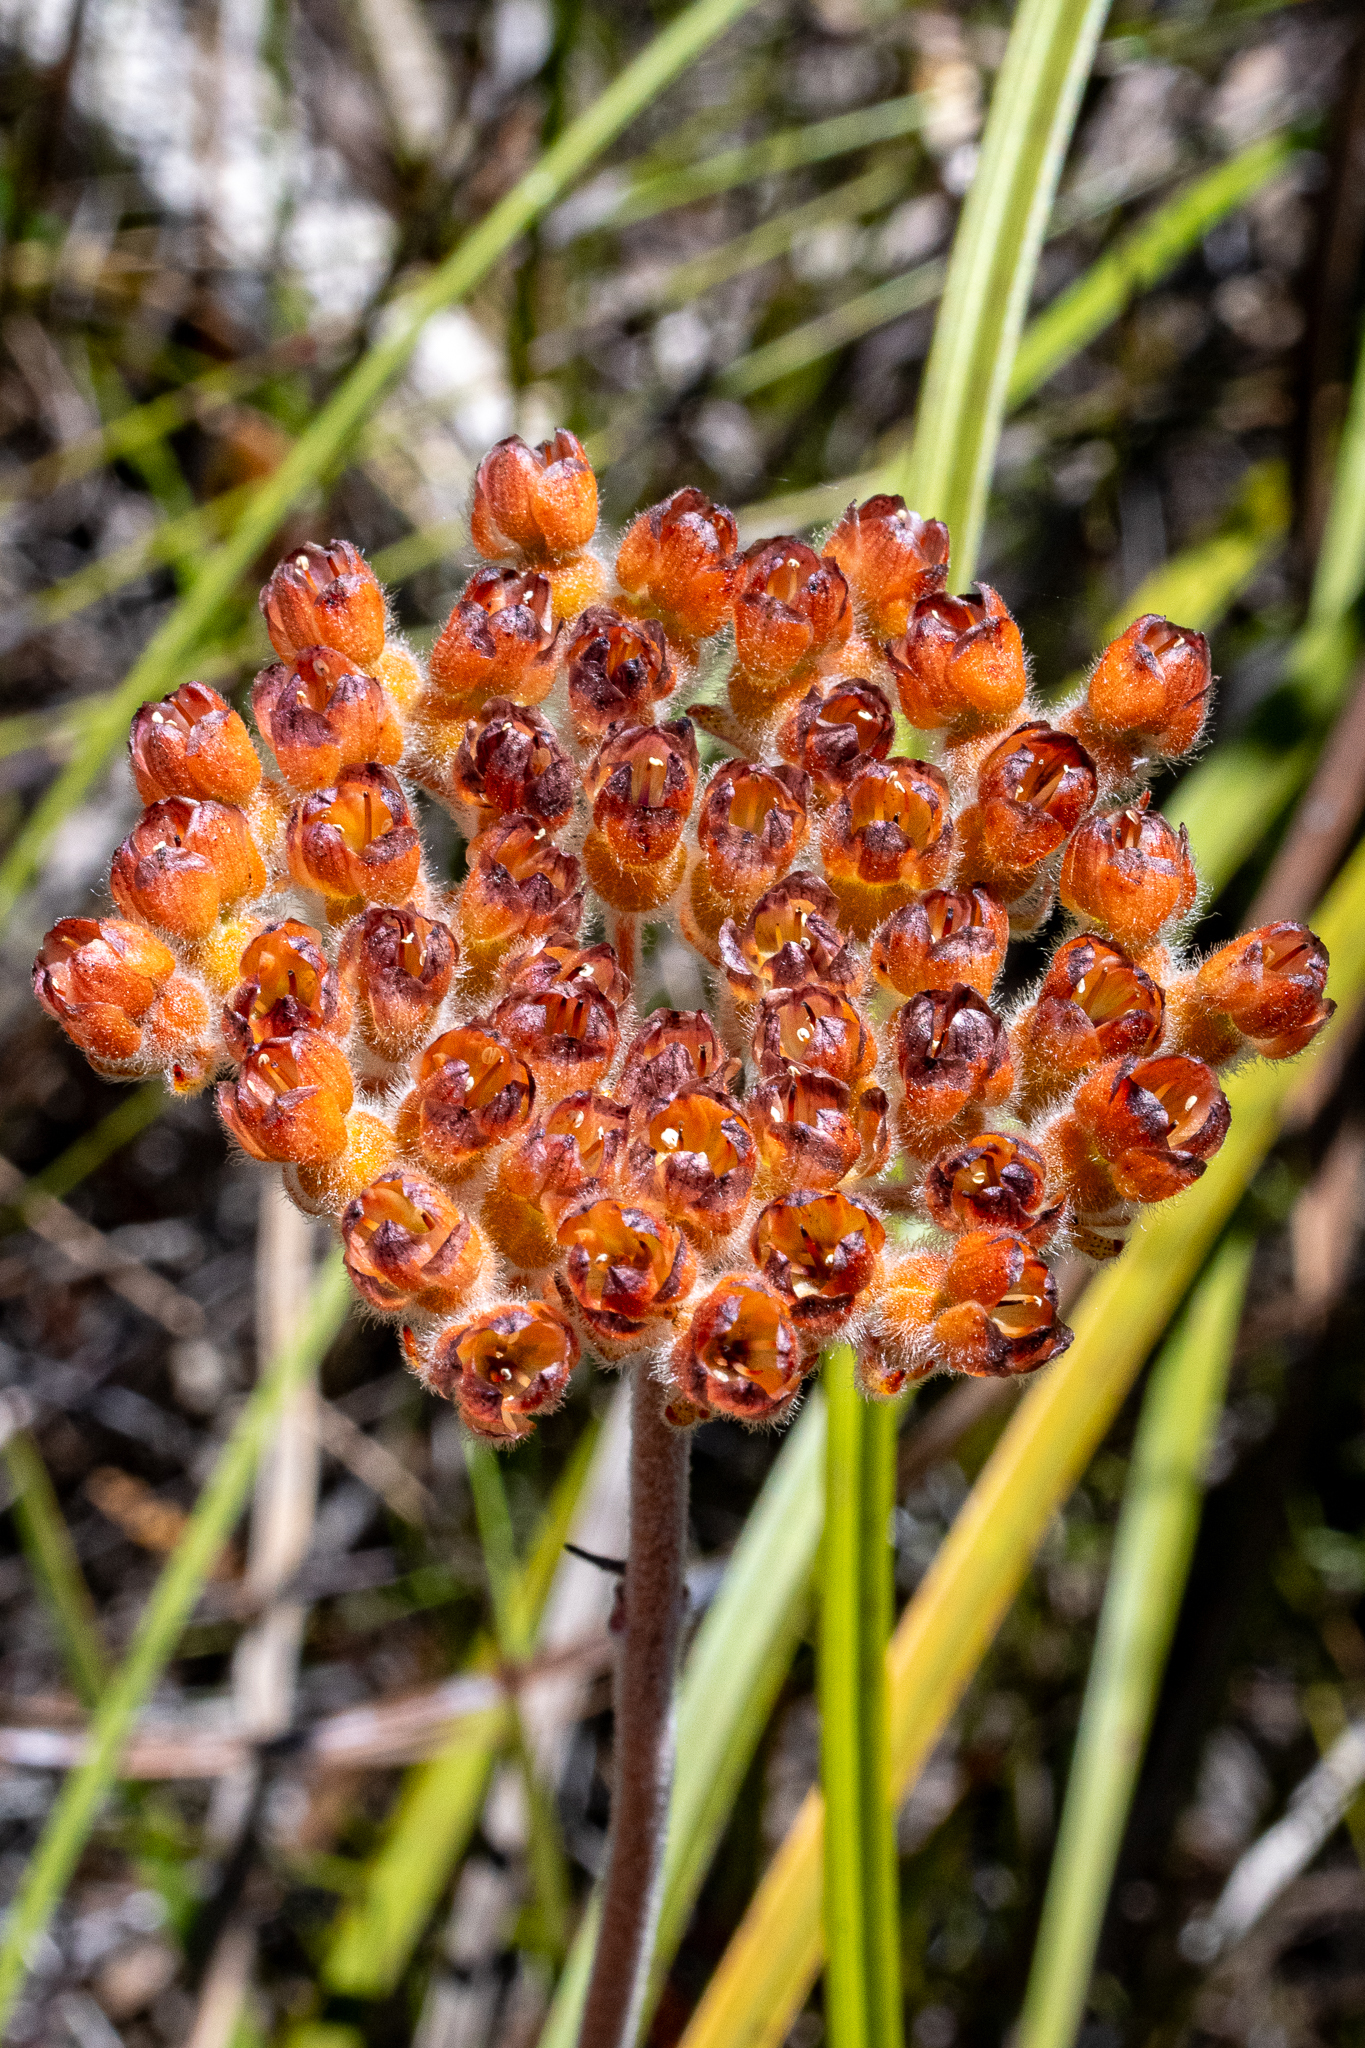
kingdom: Plantae
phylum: Tracheophyta
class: Liliopsida
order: Commelinales
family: Haemodoraceae
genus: Dilatris
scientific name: Dilatris pillansii
